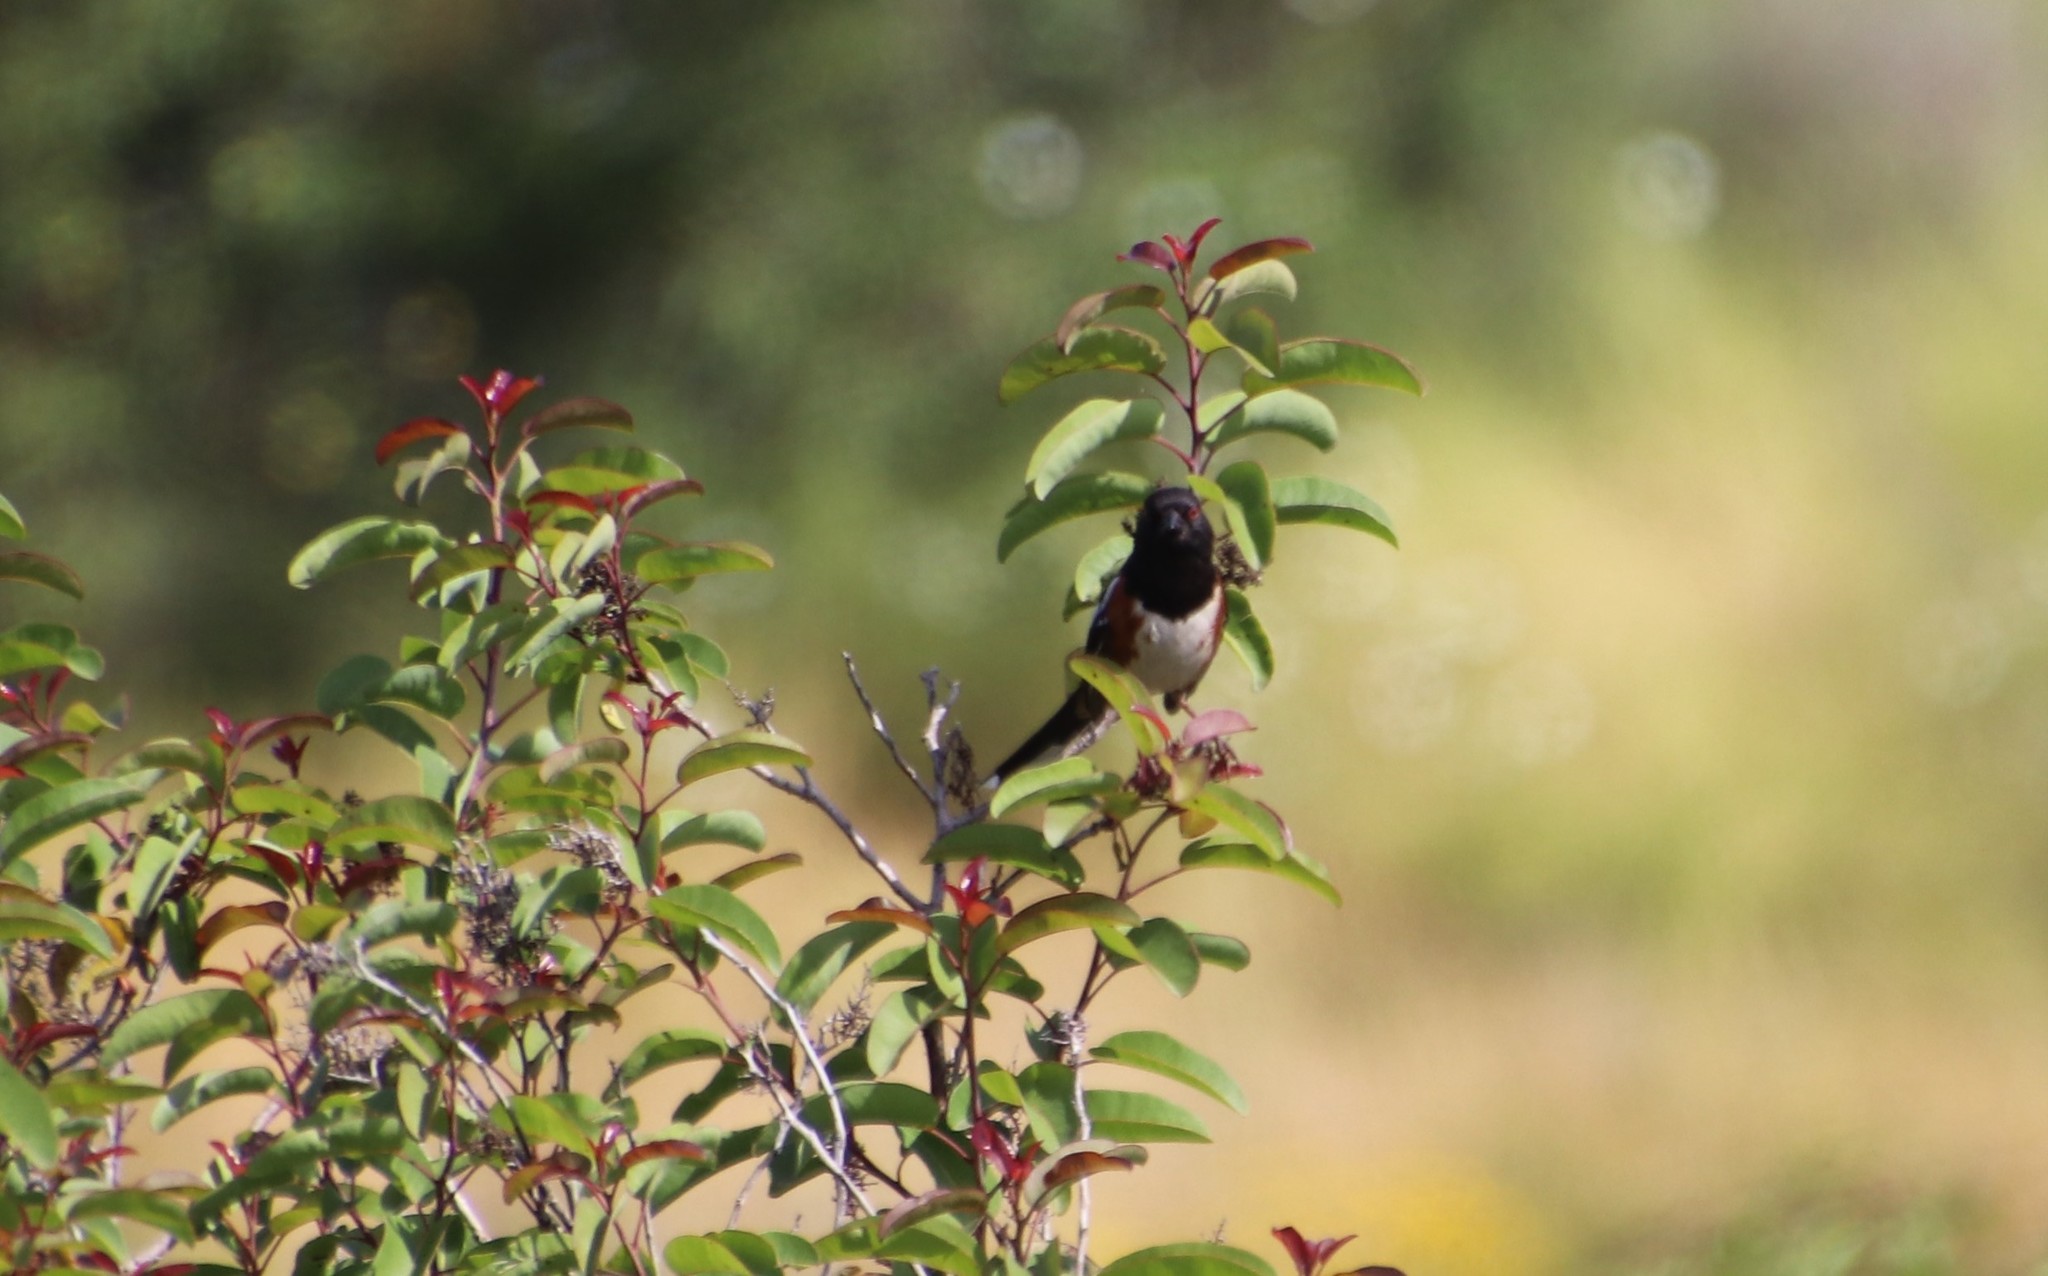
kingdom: Animalia
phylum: Chordata
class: Aves
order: Passeriformes
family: Passerellidae
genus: Pipilo
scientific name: Pipilo maculatus
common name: Spotted towhee
